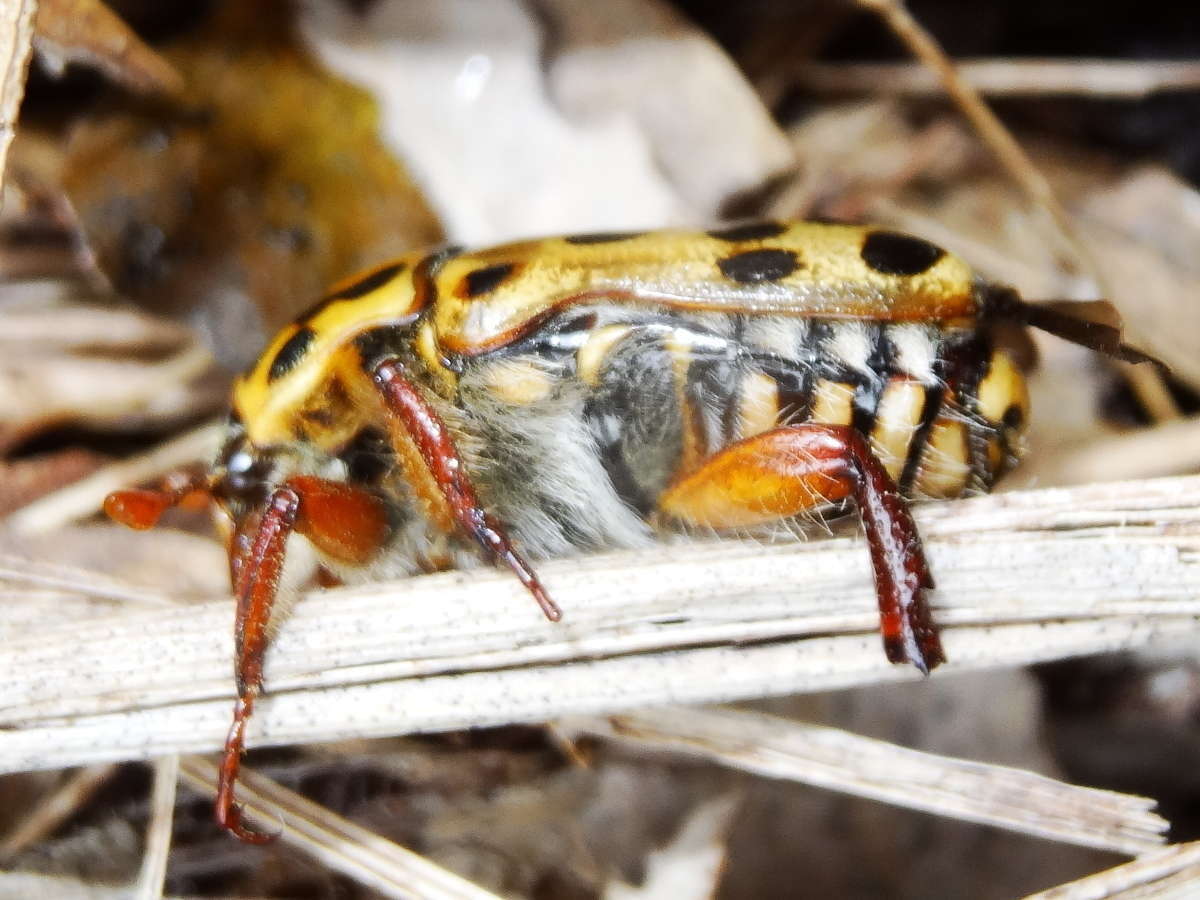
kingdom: Animalia
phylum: Arthropoda
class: Insecta
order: Coleoptera
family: Scarabaeidae
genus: Neorrhina
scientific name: Neorrhina punctatum
